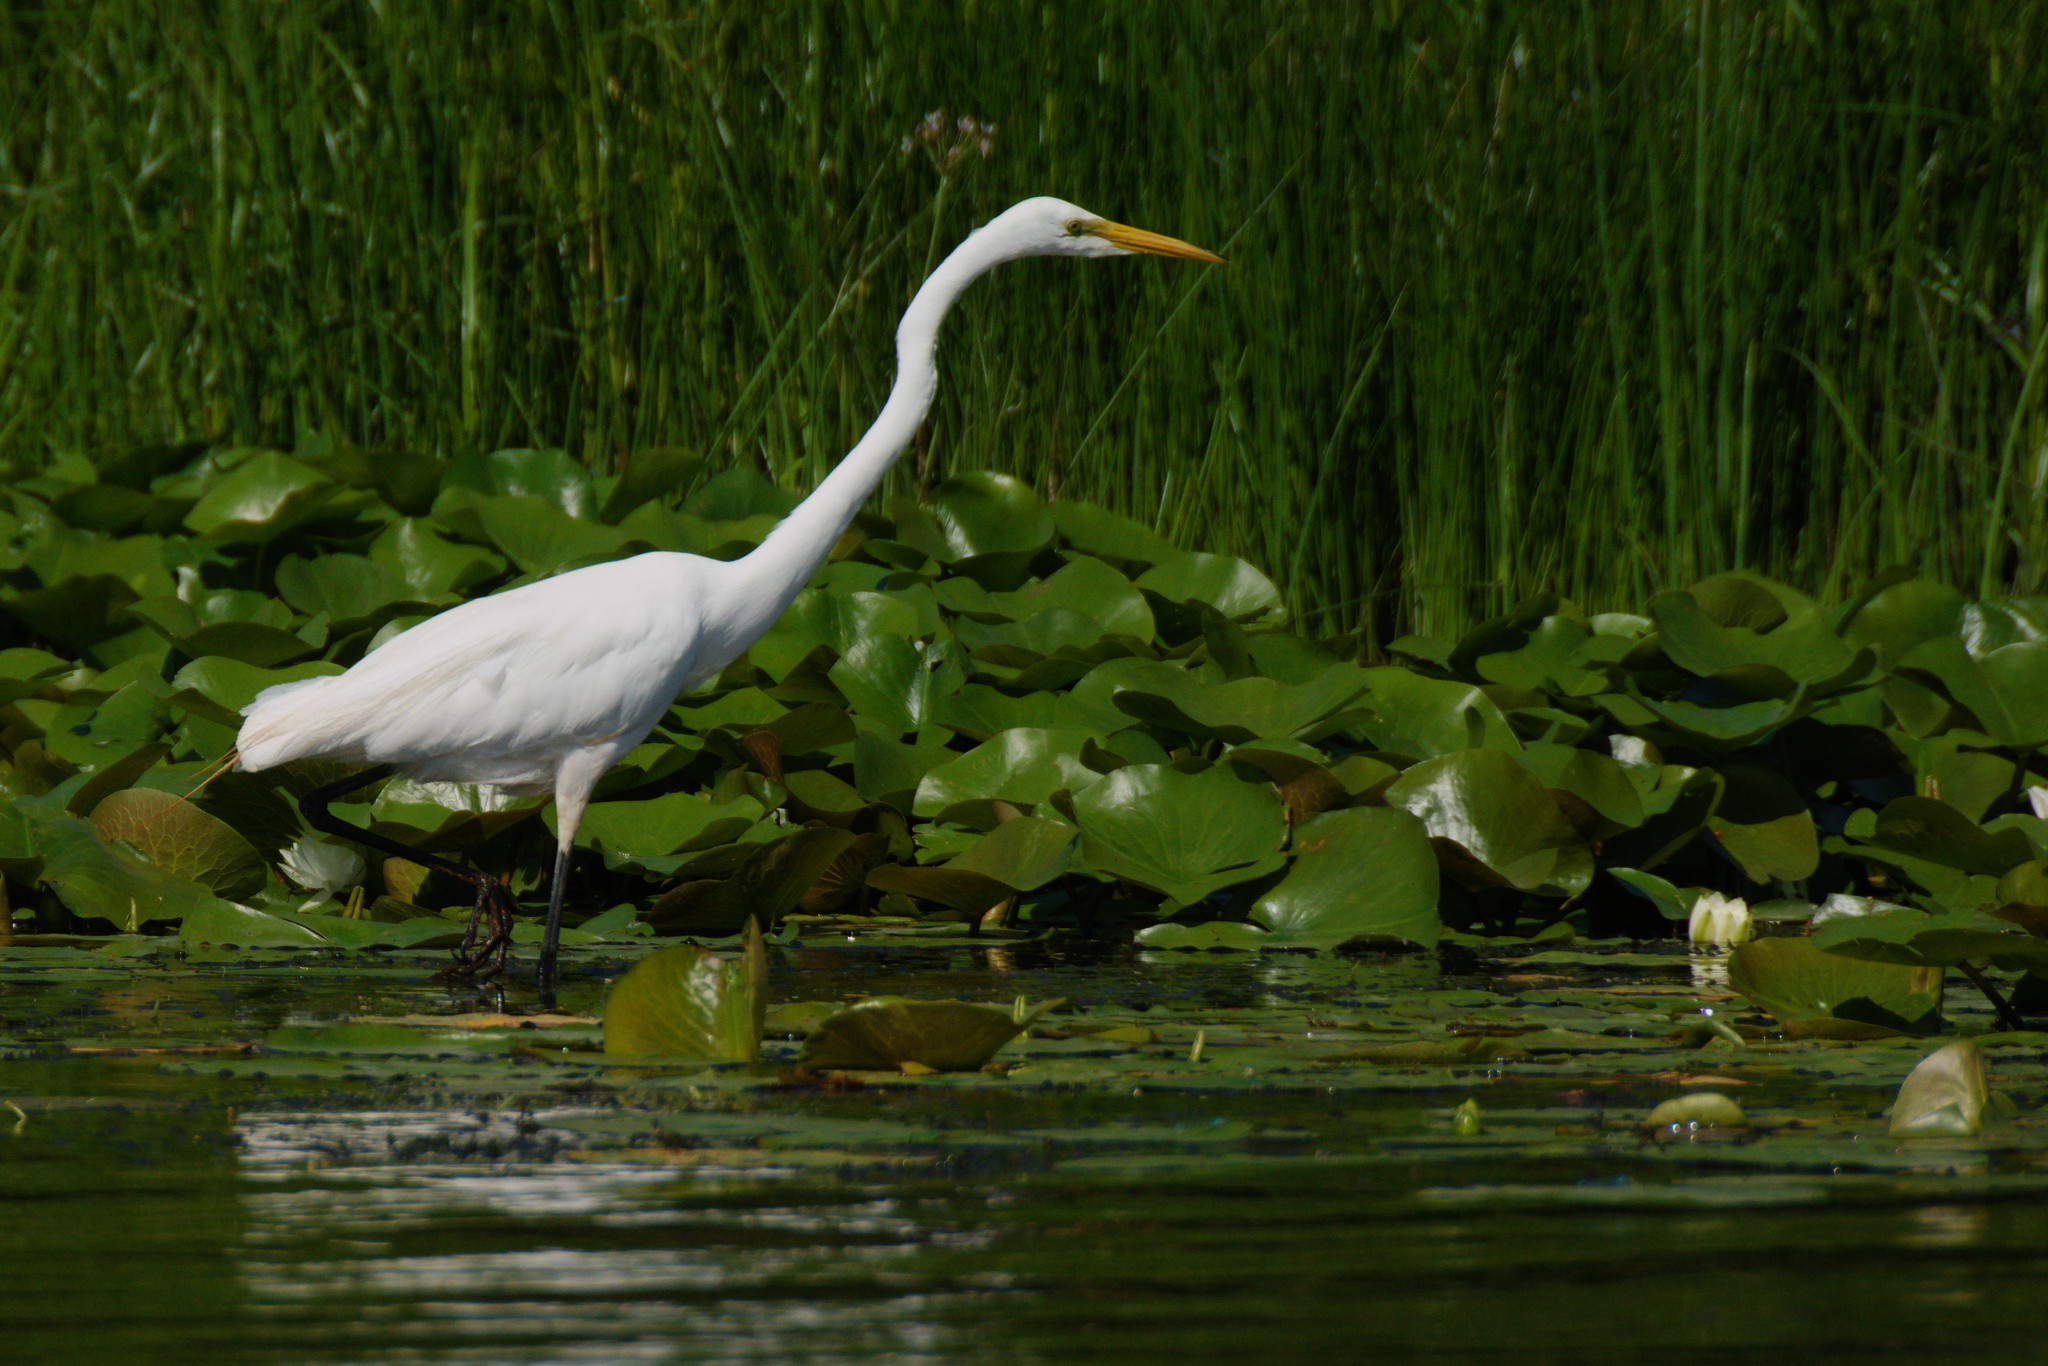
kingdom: Animalia
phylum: Chordata
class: Aves
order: Pelecaniformes
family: Ardeidae
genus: Ardea
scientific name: Ardea alba
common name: Great egret
